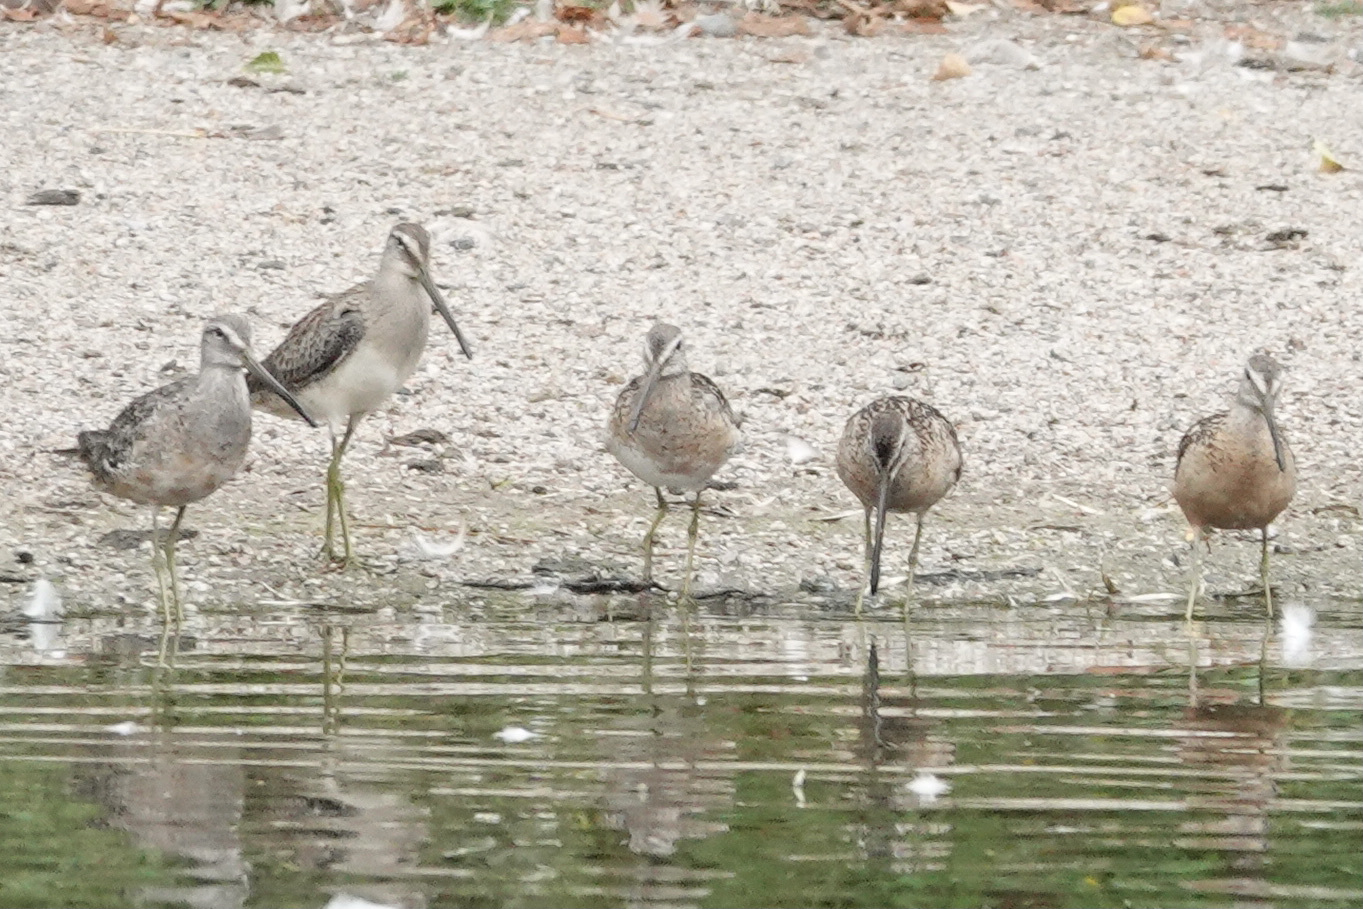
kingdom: Animalia
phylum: Chordata
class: Aves
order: Charadriiformes
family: Scolopacidae
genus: Limnodromus
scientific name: Limnodromus
